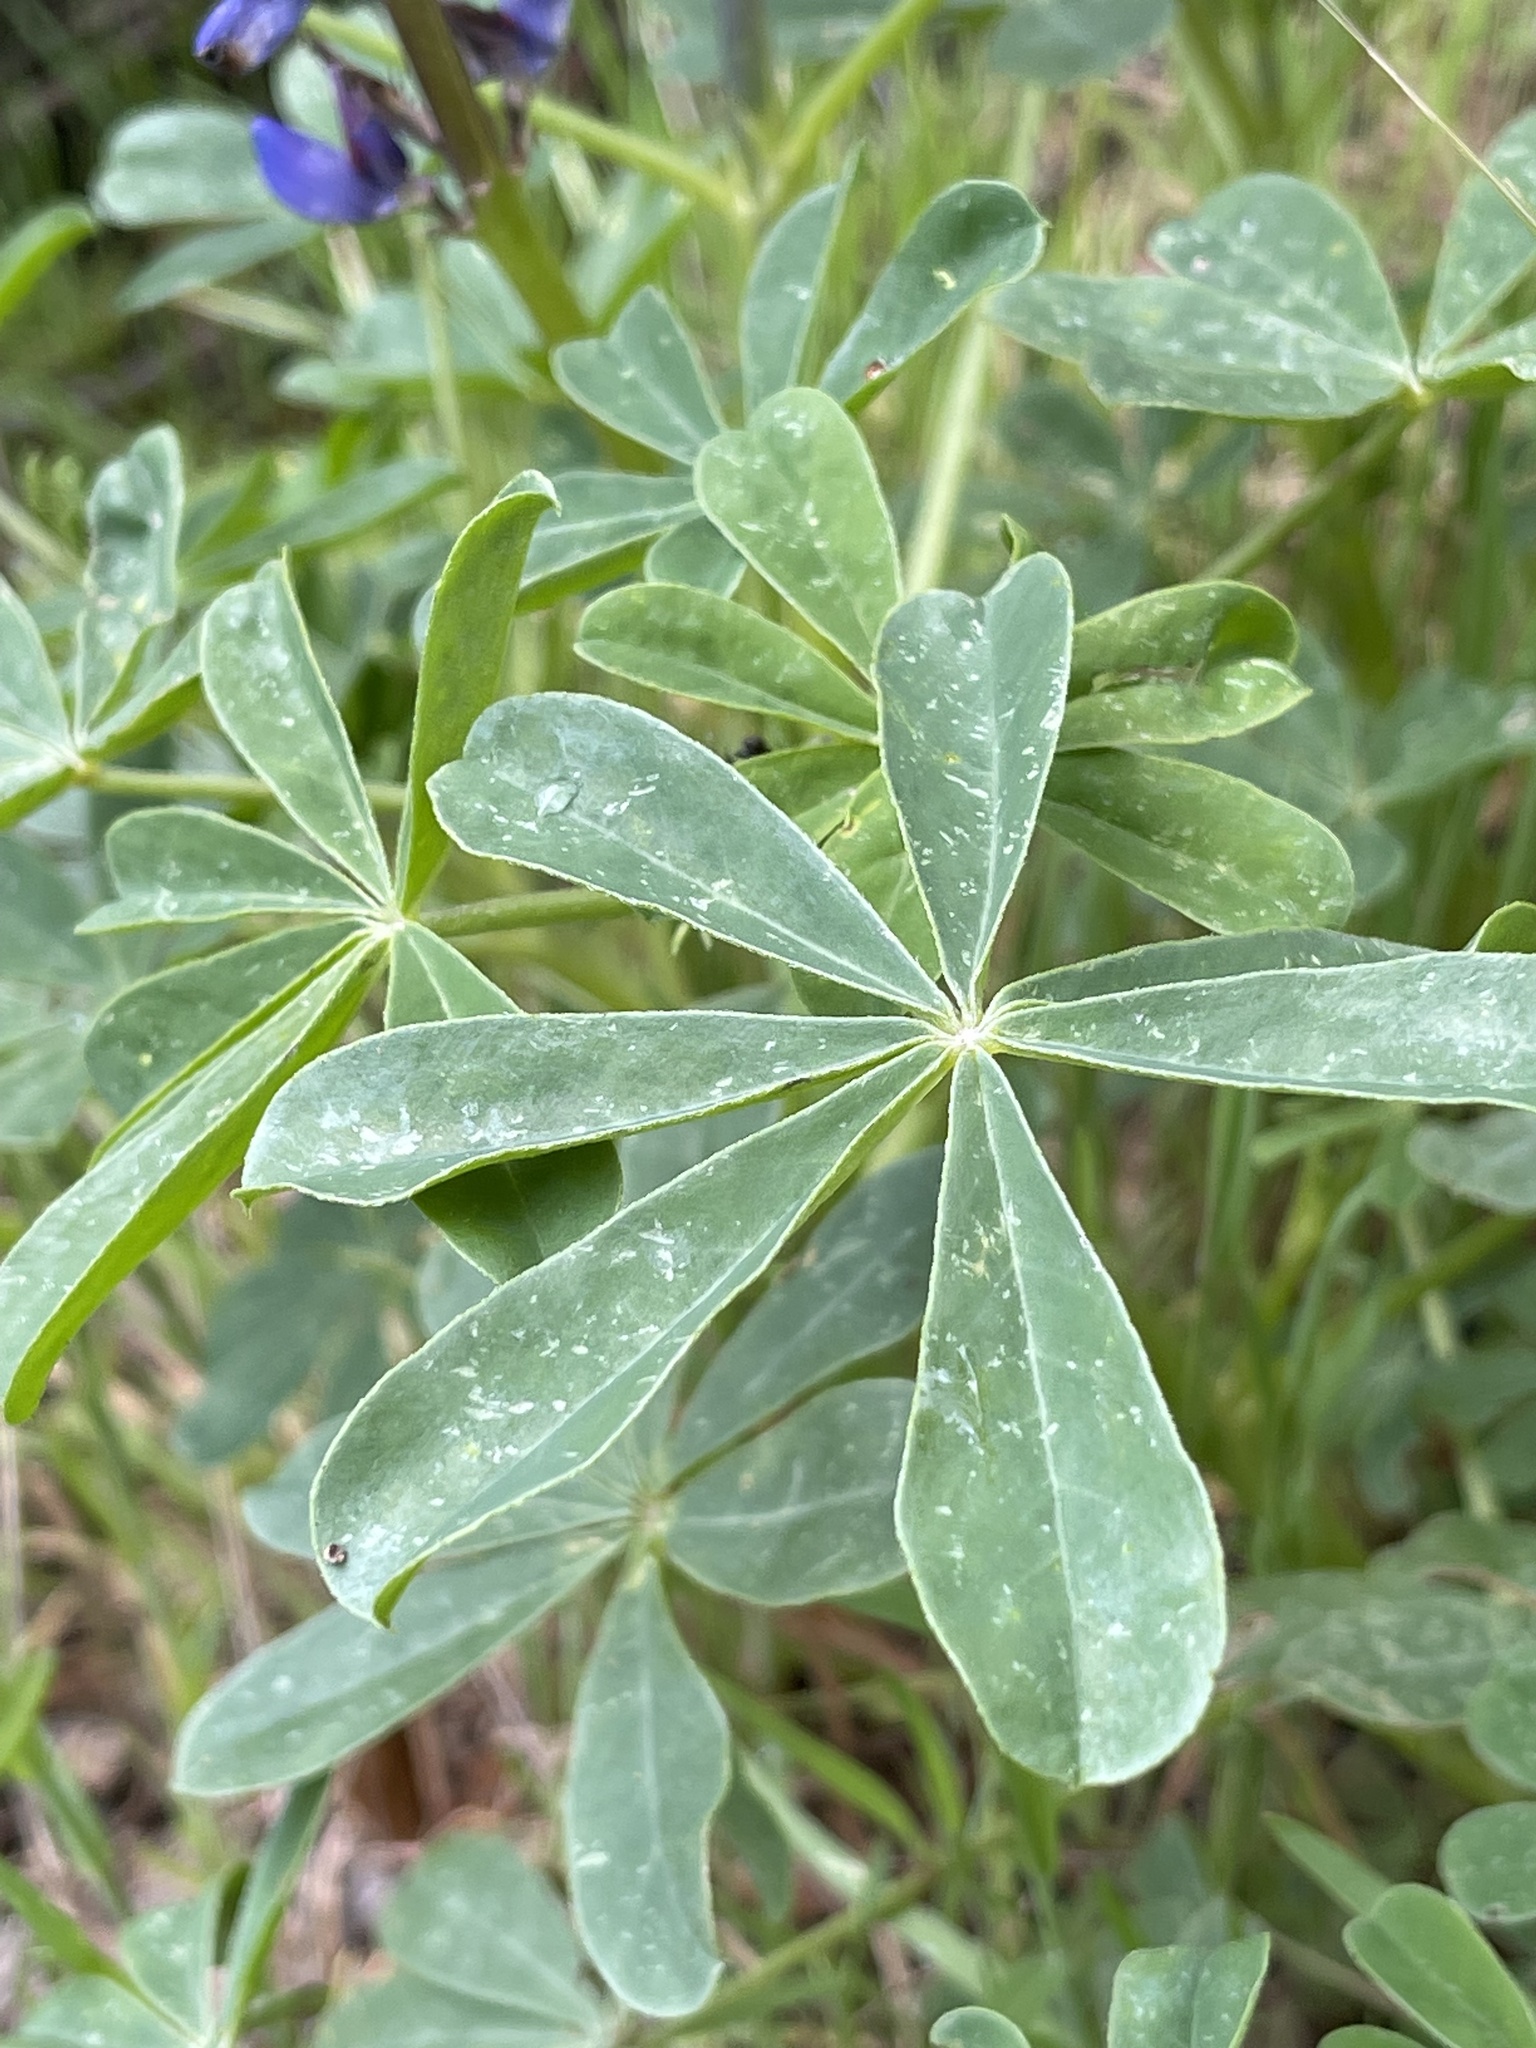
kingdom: Plantae
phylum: Tracheophyta
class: Magnoliopsida
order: Fabales
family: Fabaceae
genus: Lupinus
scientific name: Lupinus succulentus
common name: Arroyo lupine
